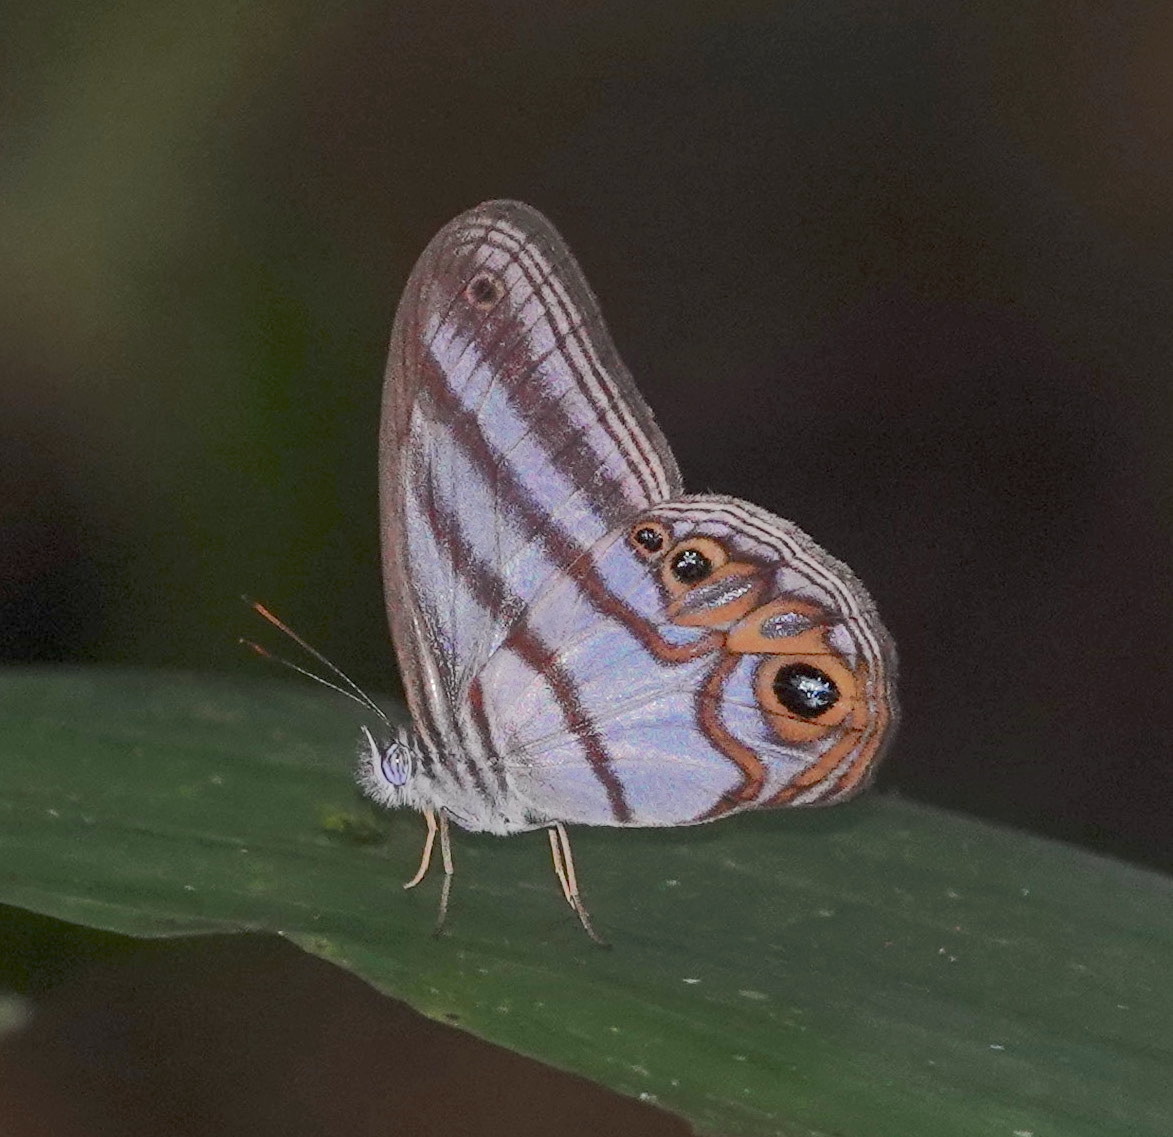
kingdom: Animalia
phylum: Arthropoda
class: Insecta
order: Lepidoptera
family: Nymphalidae
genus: Pseudeuptychia
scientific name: Pseudeuptychia
